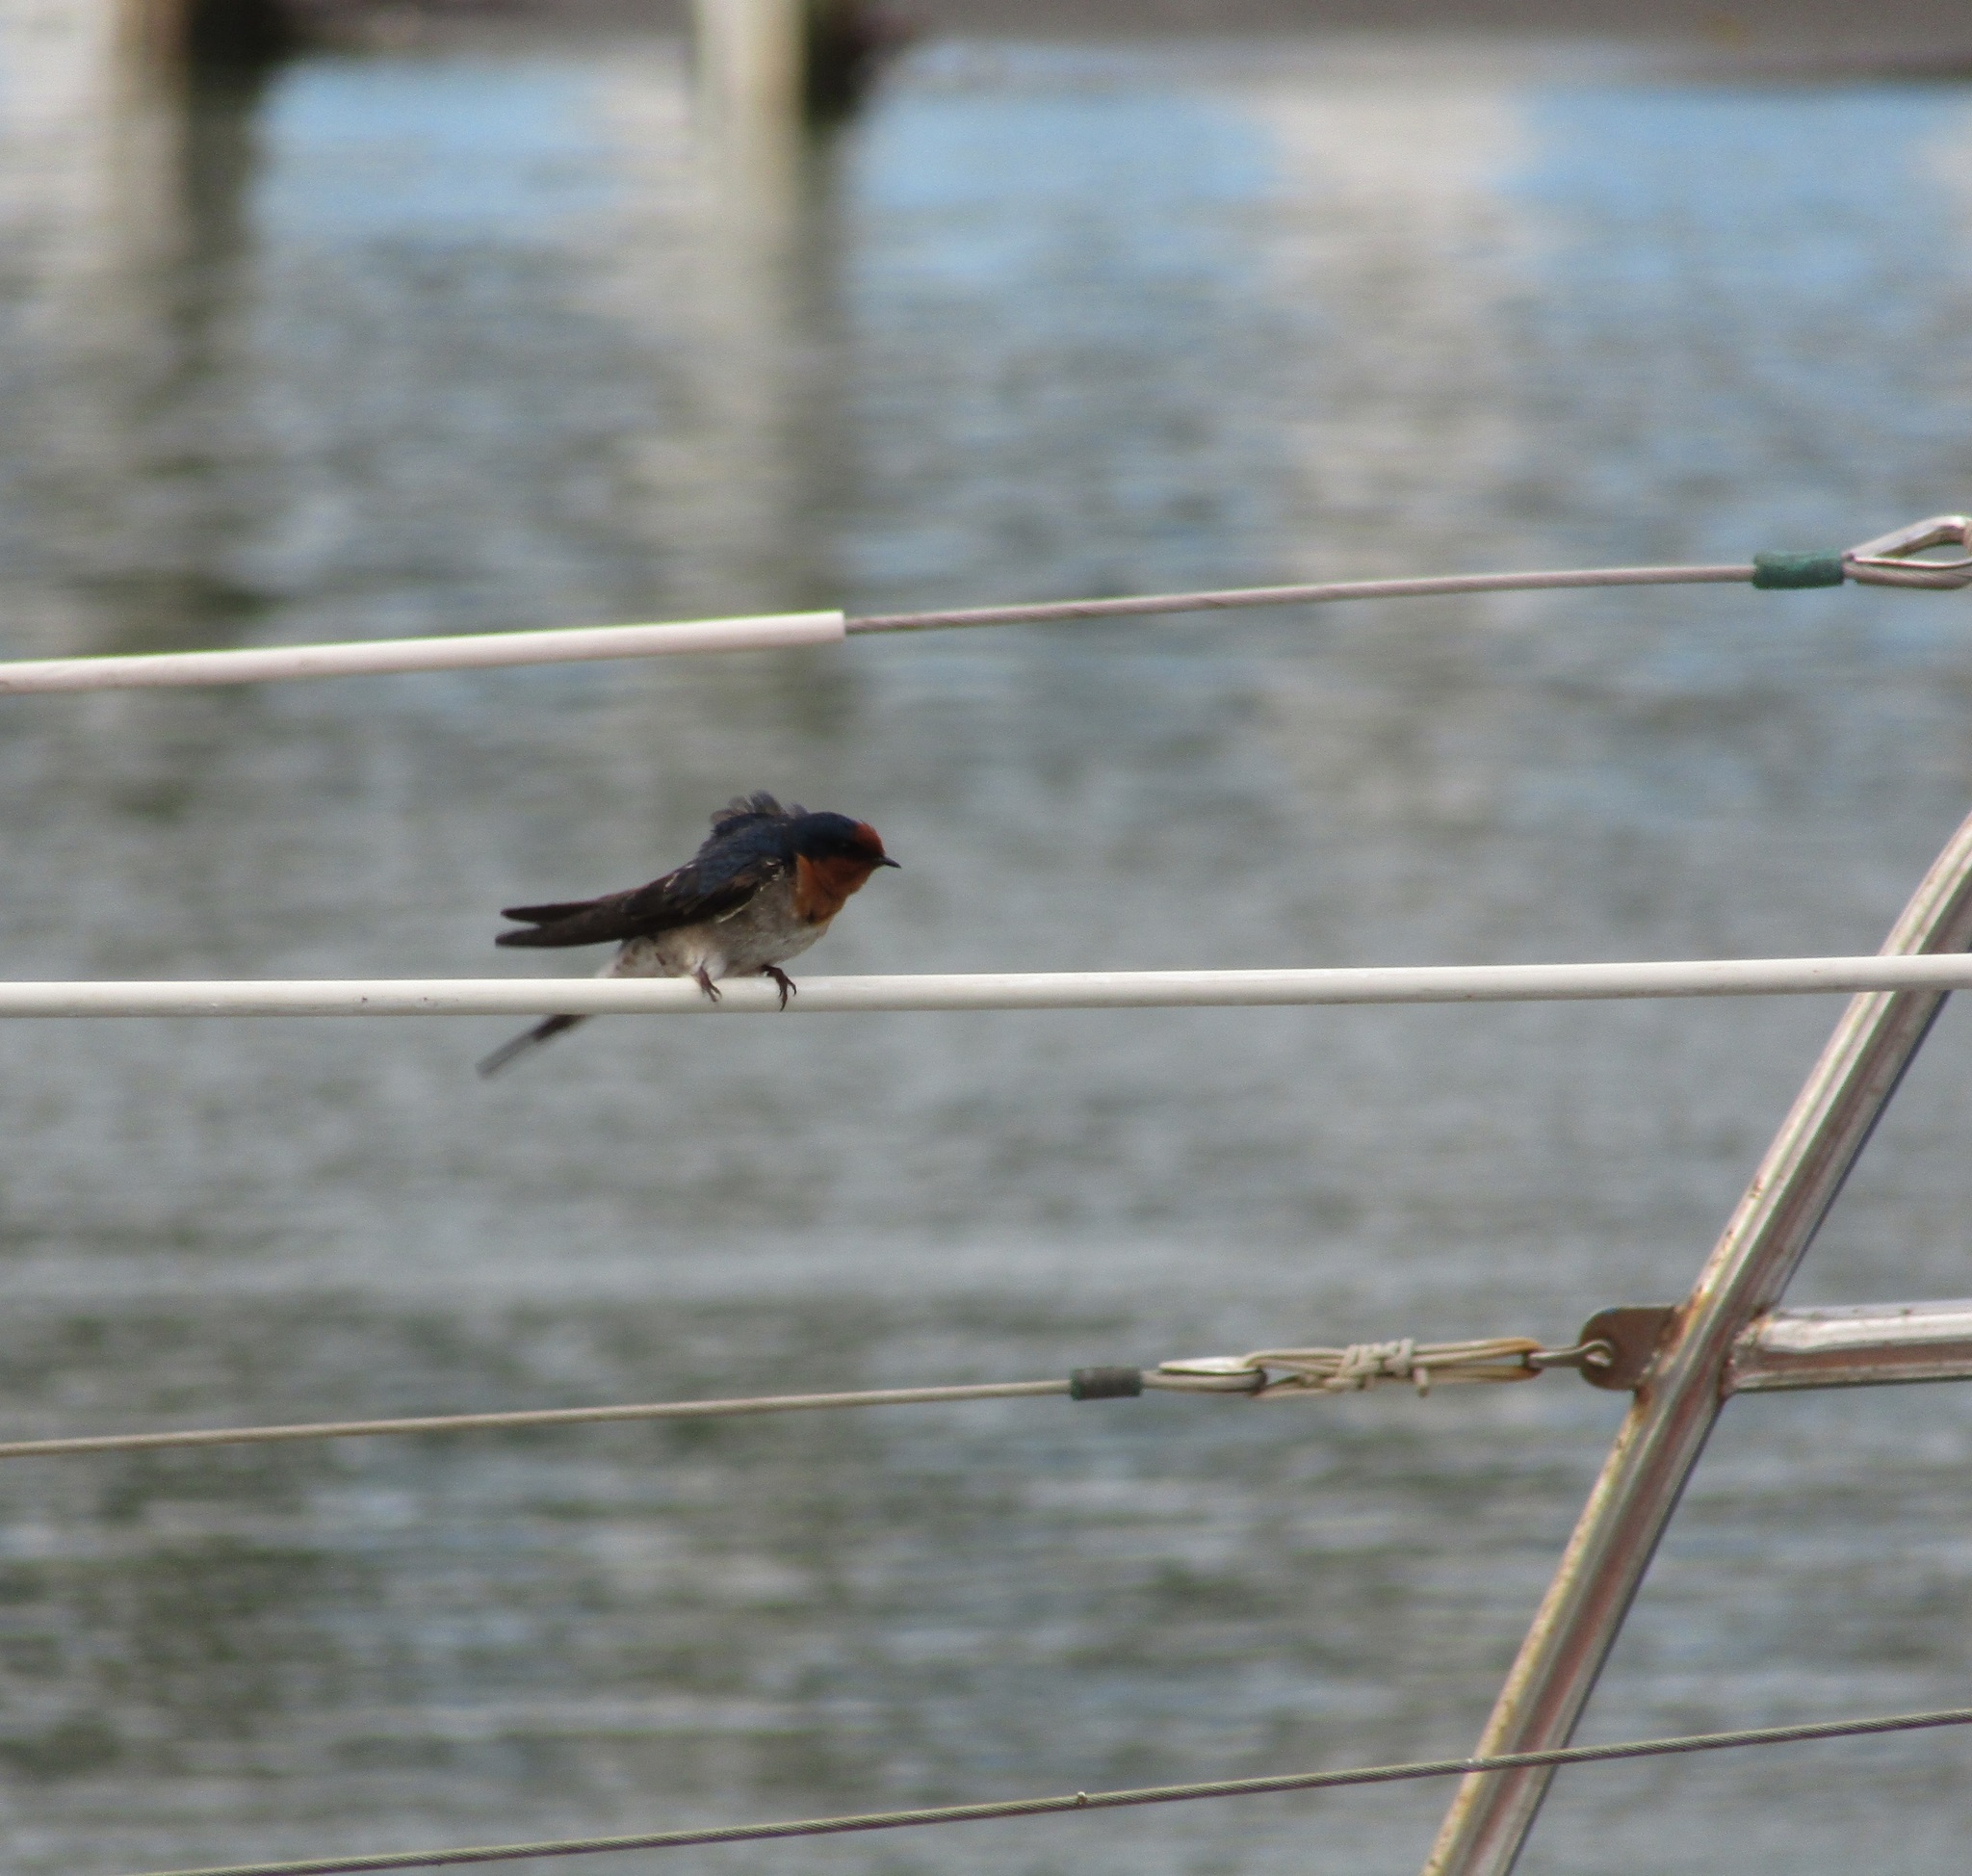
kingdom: Animalia
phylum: Chordata
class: Aves
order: Passeriformes
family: Hirundinidae
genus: Hirundo
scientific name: Hirundo neoxena
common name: Welcome swallow
